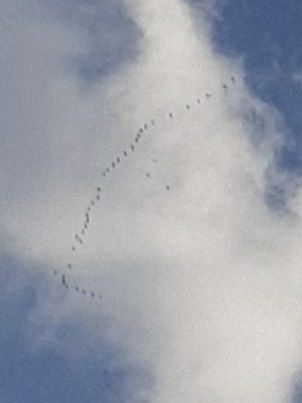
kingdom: Animalia
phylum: Chordata
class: Aves
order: Gruiformes
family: Gruidae
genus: Grus
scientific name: Grus grus
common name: Common crane
